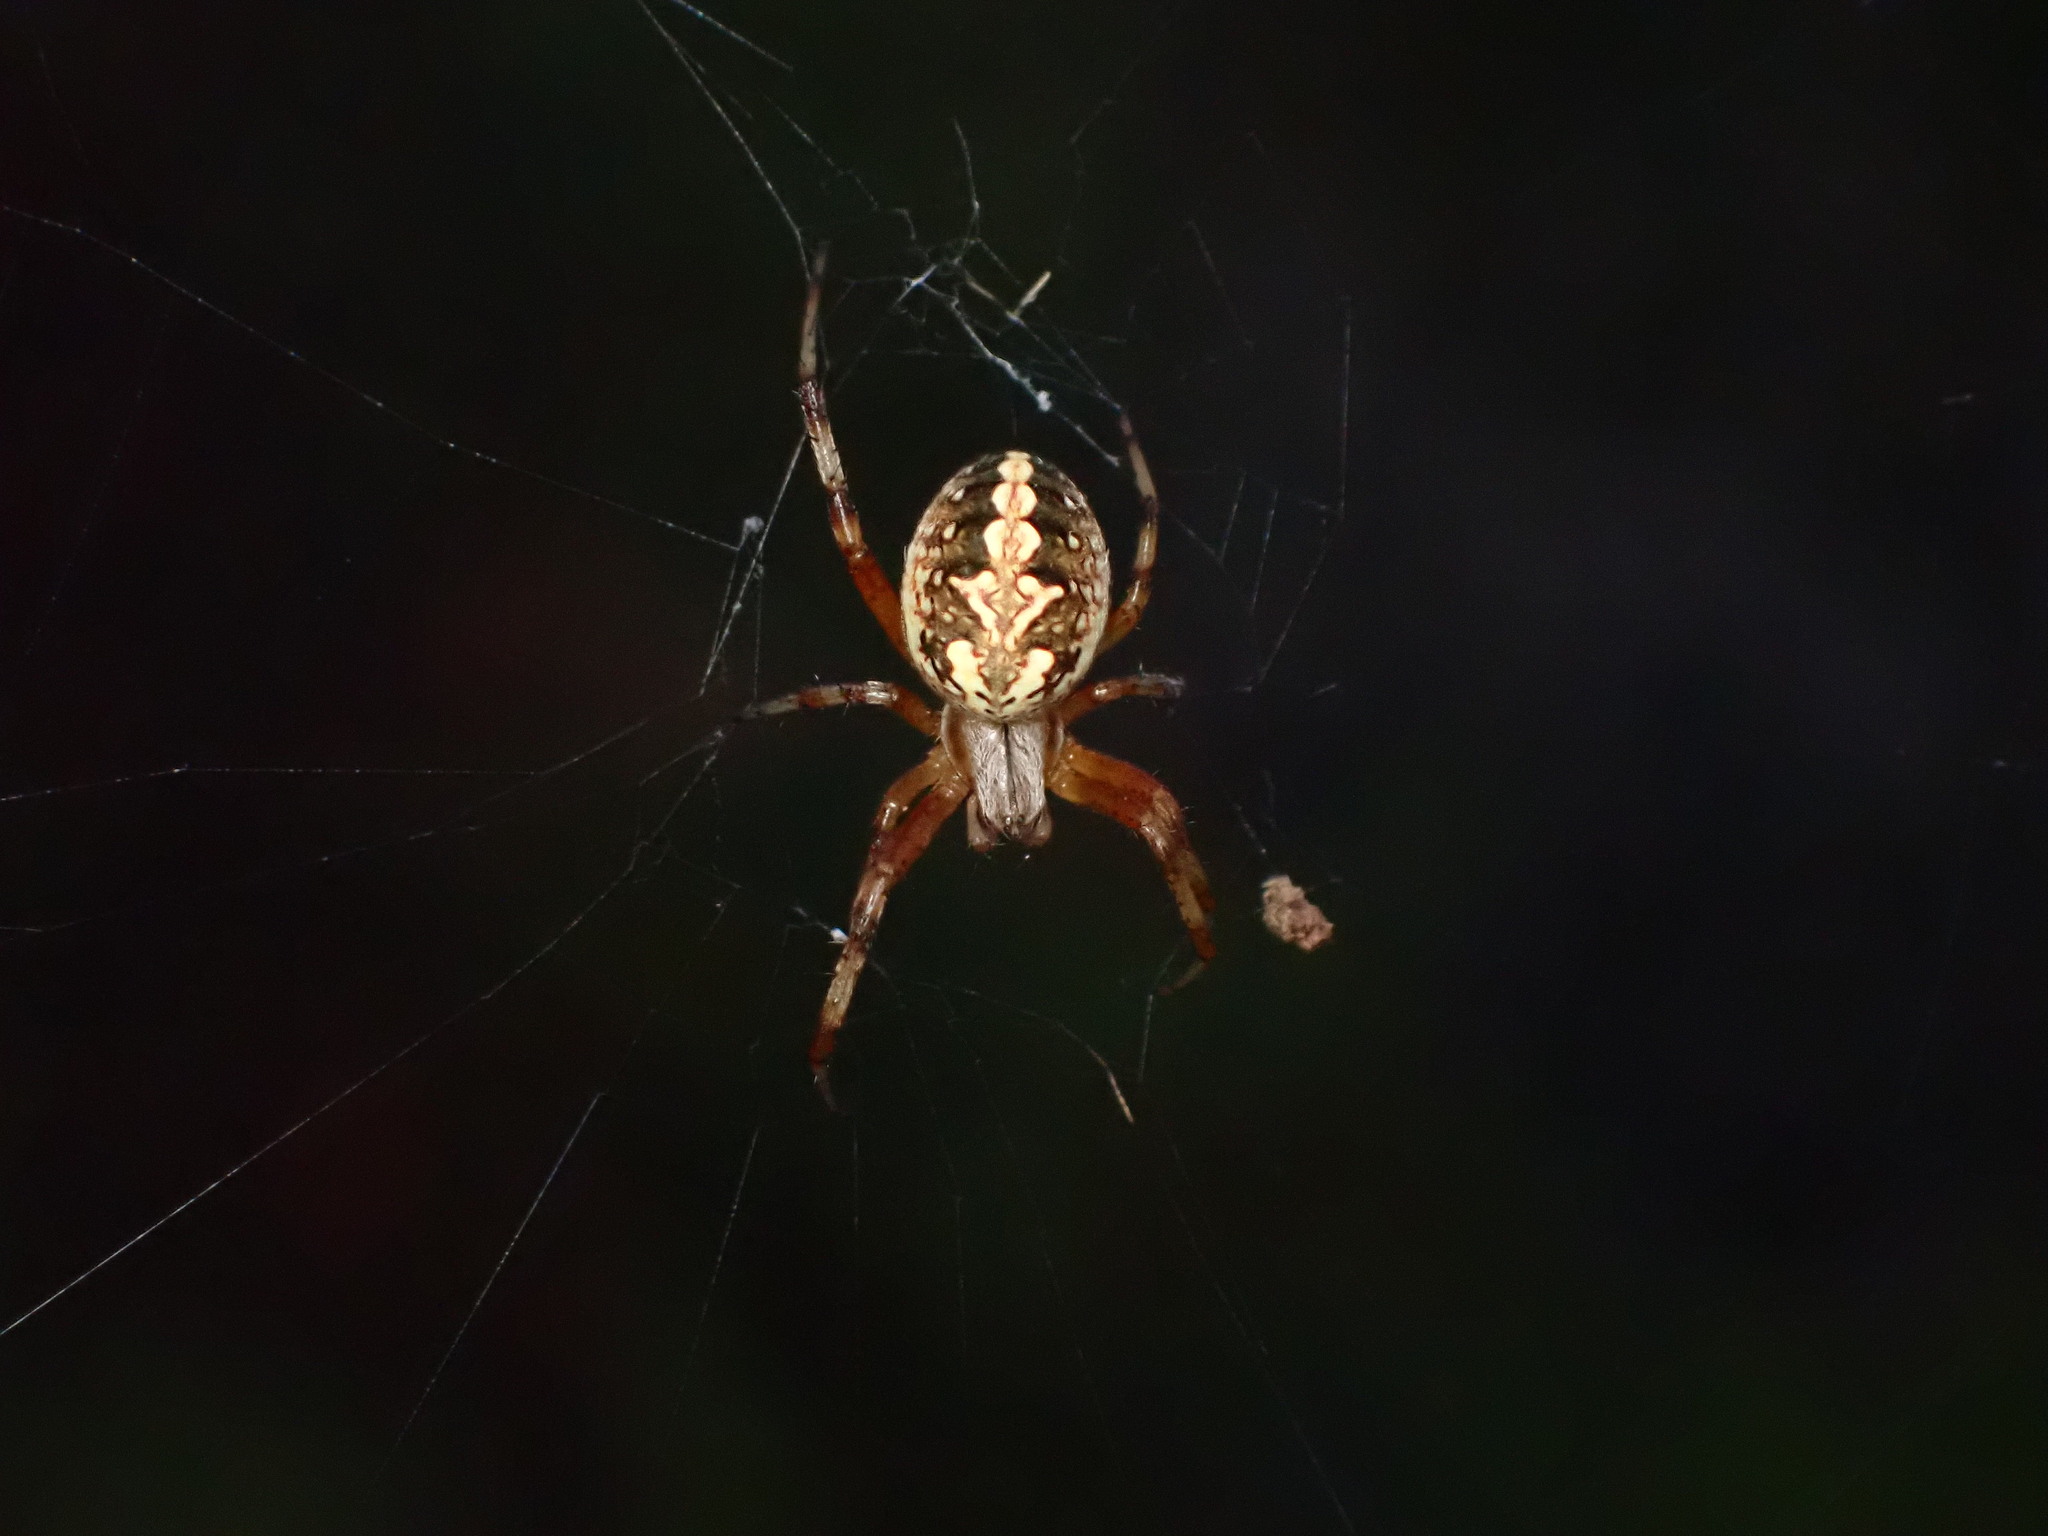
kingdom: Animalia
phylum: Arthropoda
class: Arachnida
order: Araneae
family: Araneidae
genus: Neoscona
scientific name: Neoscona oaxacensis
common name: Orb weavers
